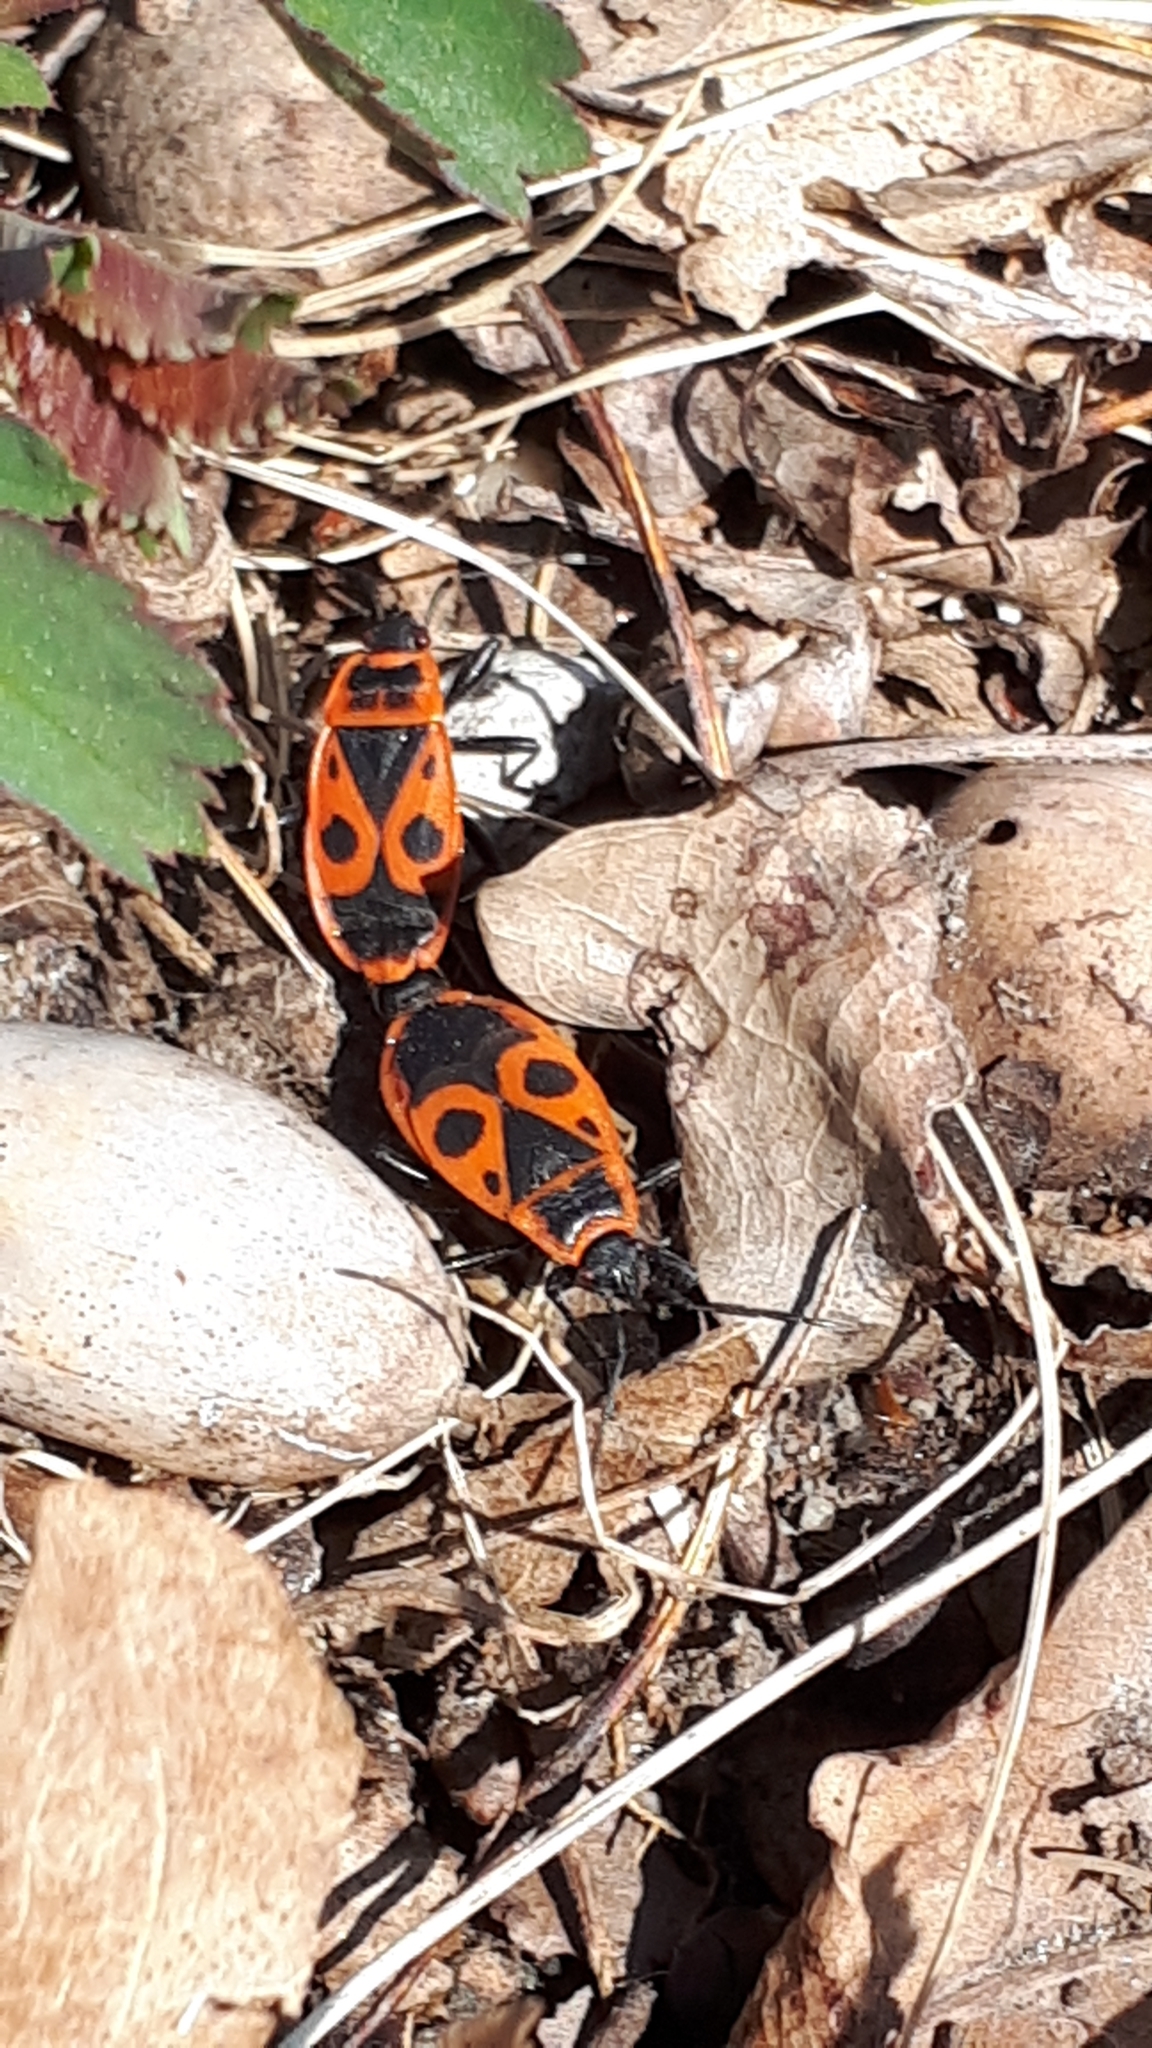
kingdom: Animalia
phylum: Arthropoda
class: Insecta
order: Hemiptera
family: Pyrrhocoridae
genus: Pyrrhocoris
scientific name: Pyrrhocoris apterus
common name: Firebug
